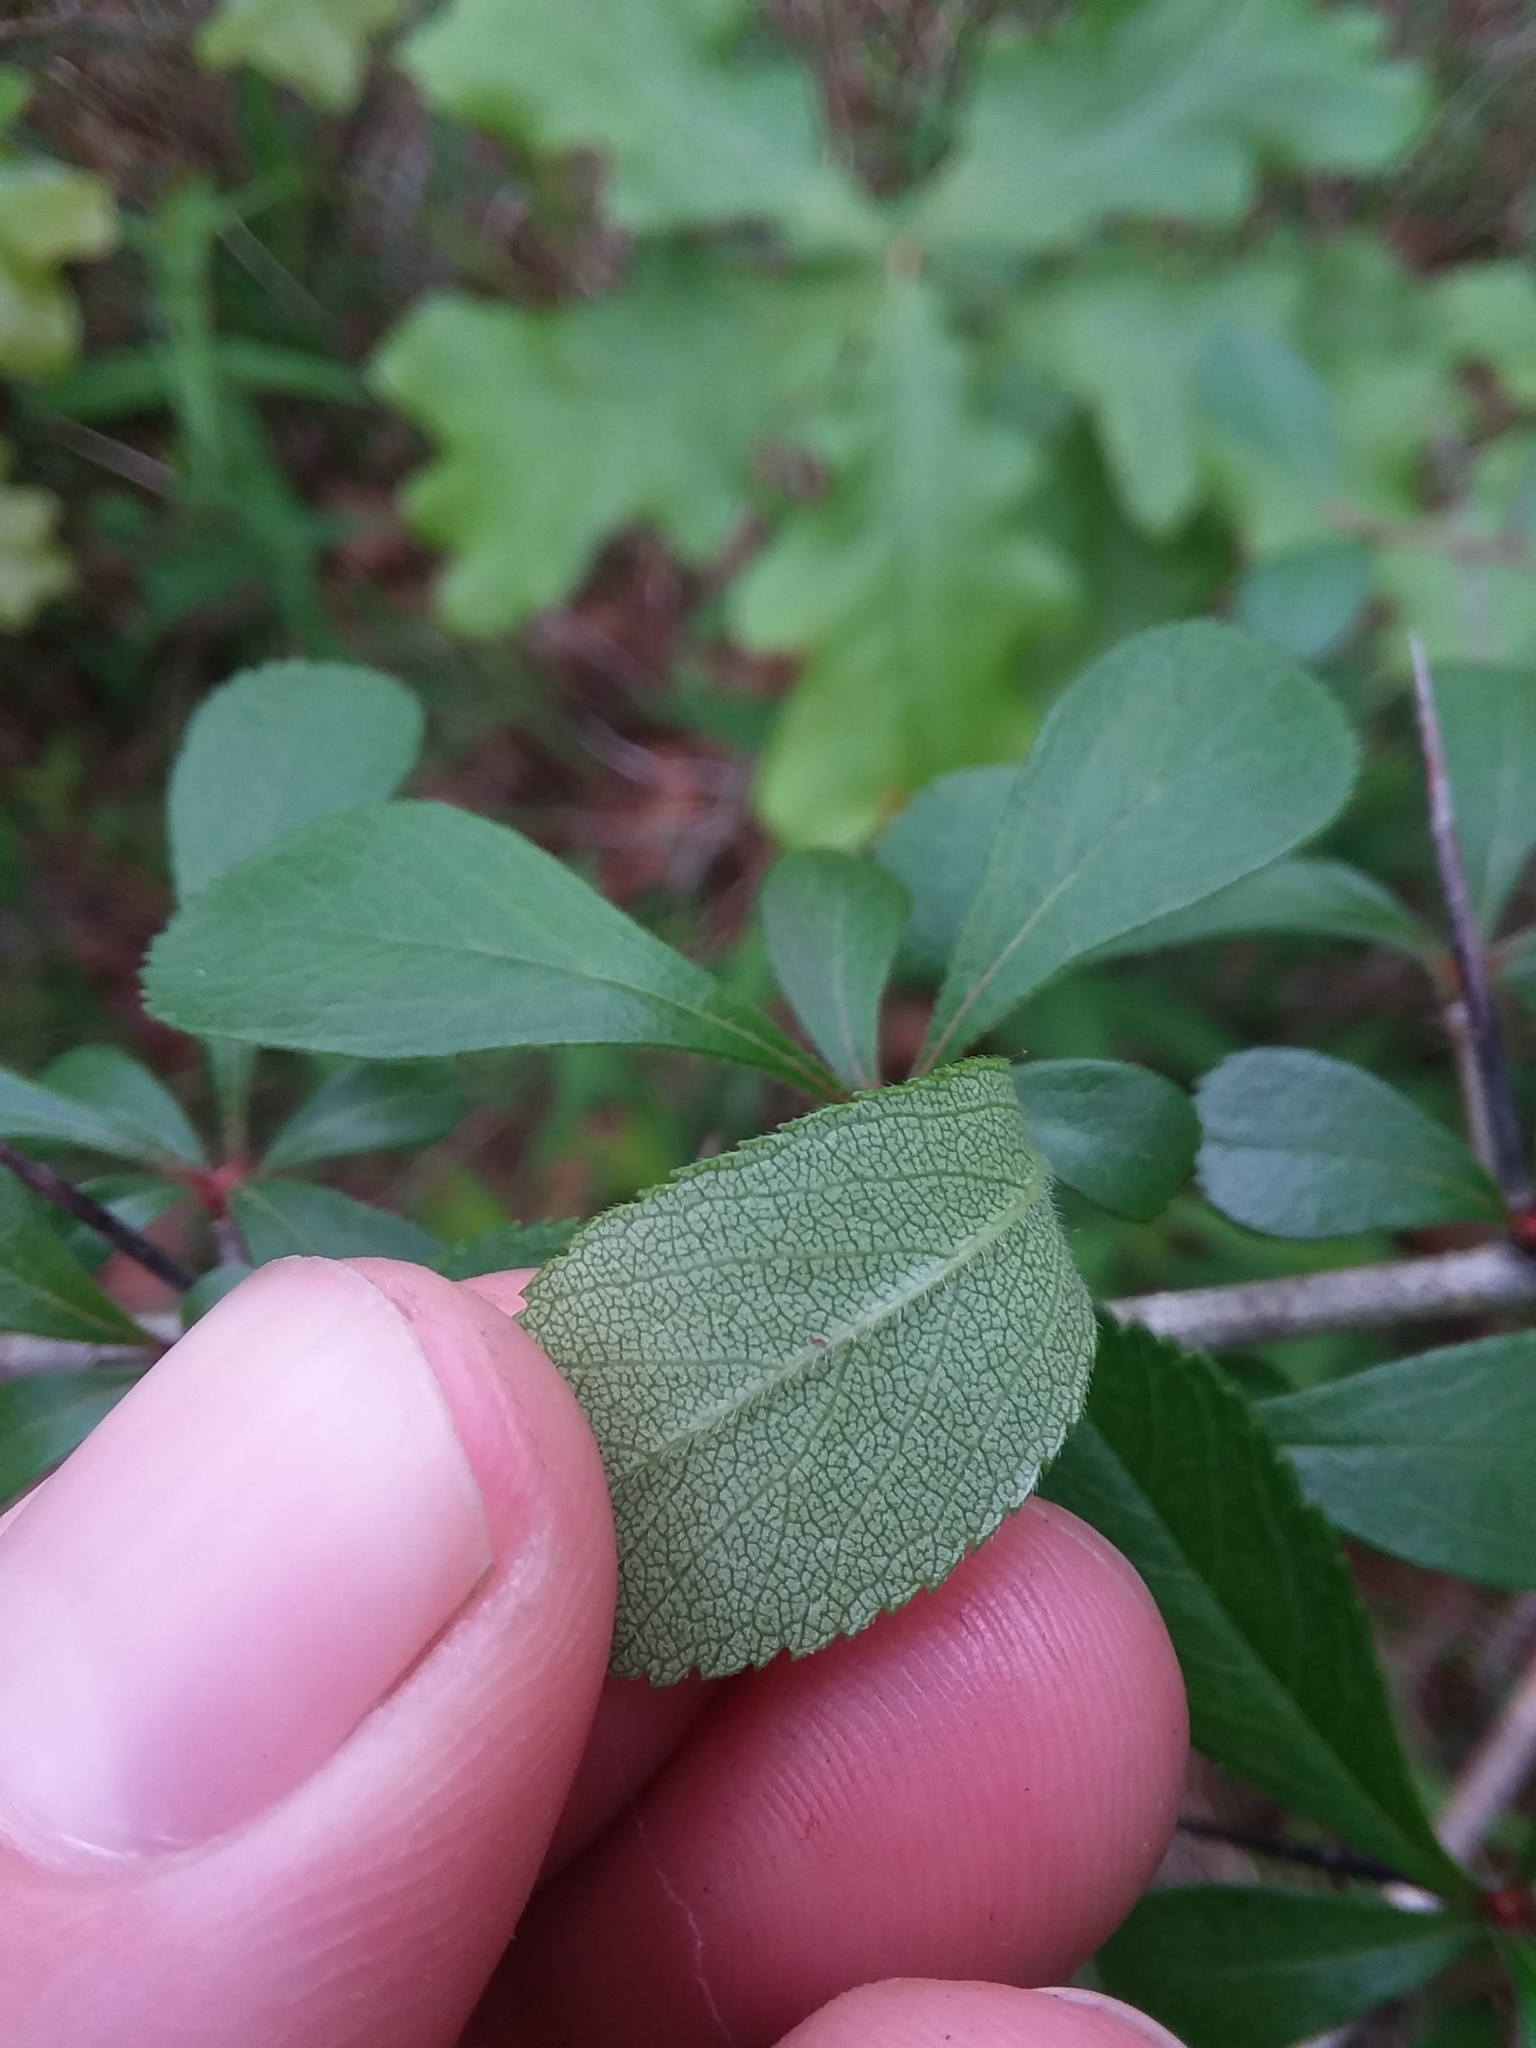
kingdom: Plantae
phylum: Tracheophyta
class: Magnoliopsida
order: Rosales
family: Rosaceae
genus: Crataegus
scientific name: Crataegus berberifolia
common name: Barberry hawthorn
